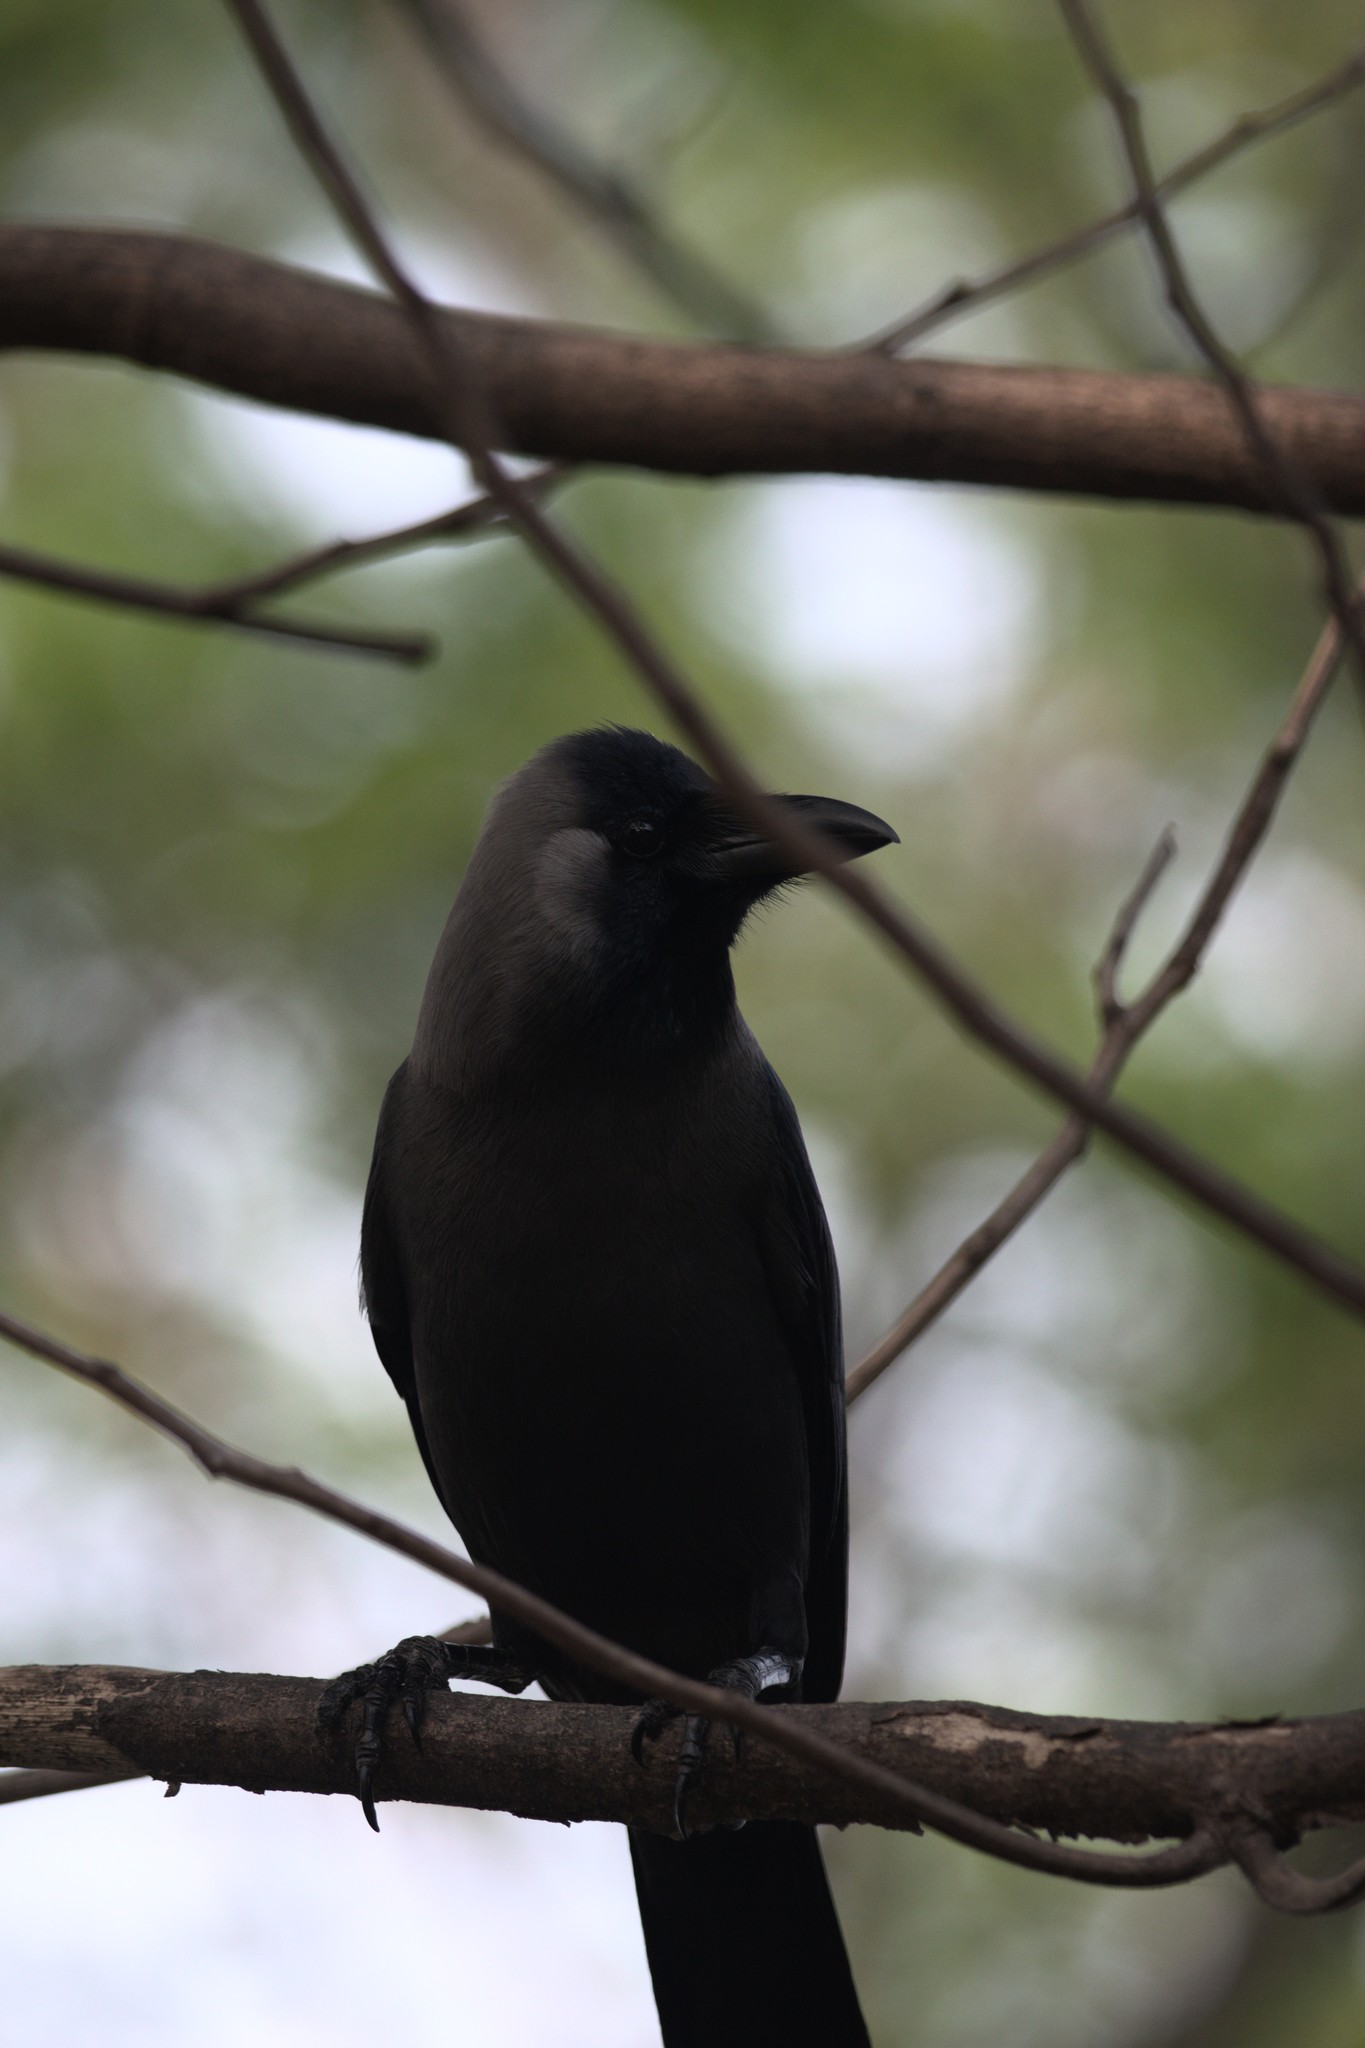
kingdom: Animalia
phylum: Chordata
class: Aves
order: Passeriformes
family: Corvidae
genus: Corvus
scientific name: Corvus splendens
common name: House crow
